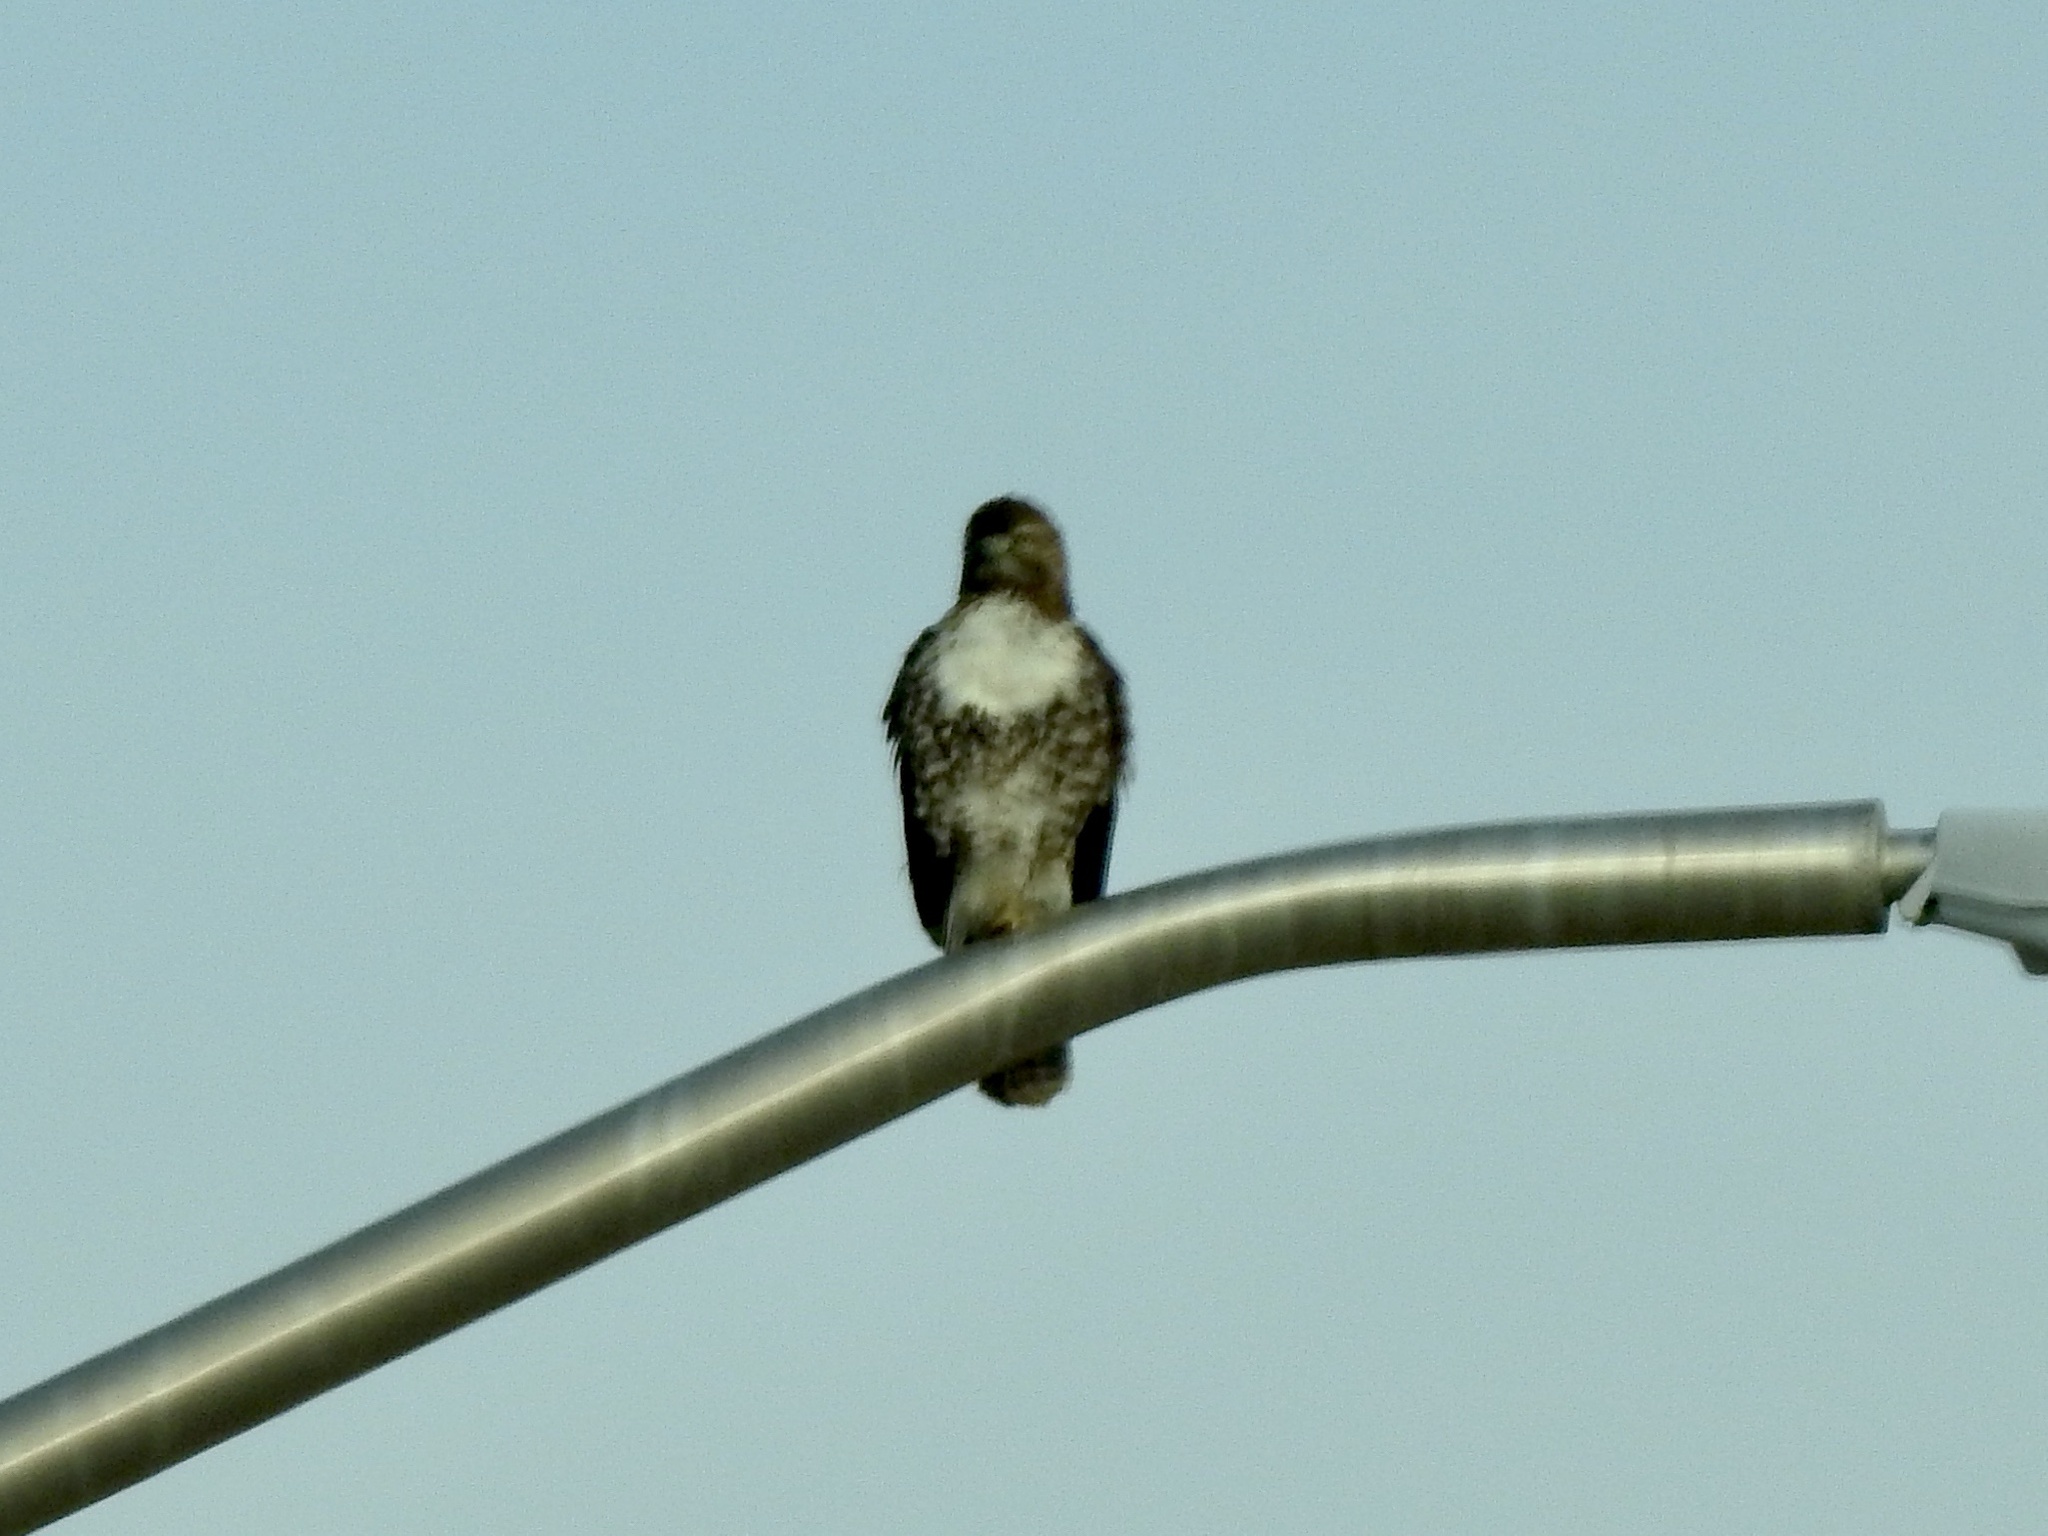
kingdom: Animalia
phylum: Chordata
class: Aves
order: Accipitriformes
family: Accipitridae
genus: Buteo
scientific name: Buteo jamaicensis
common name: Red-tailed hawk
